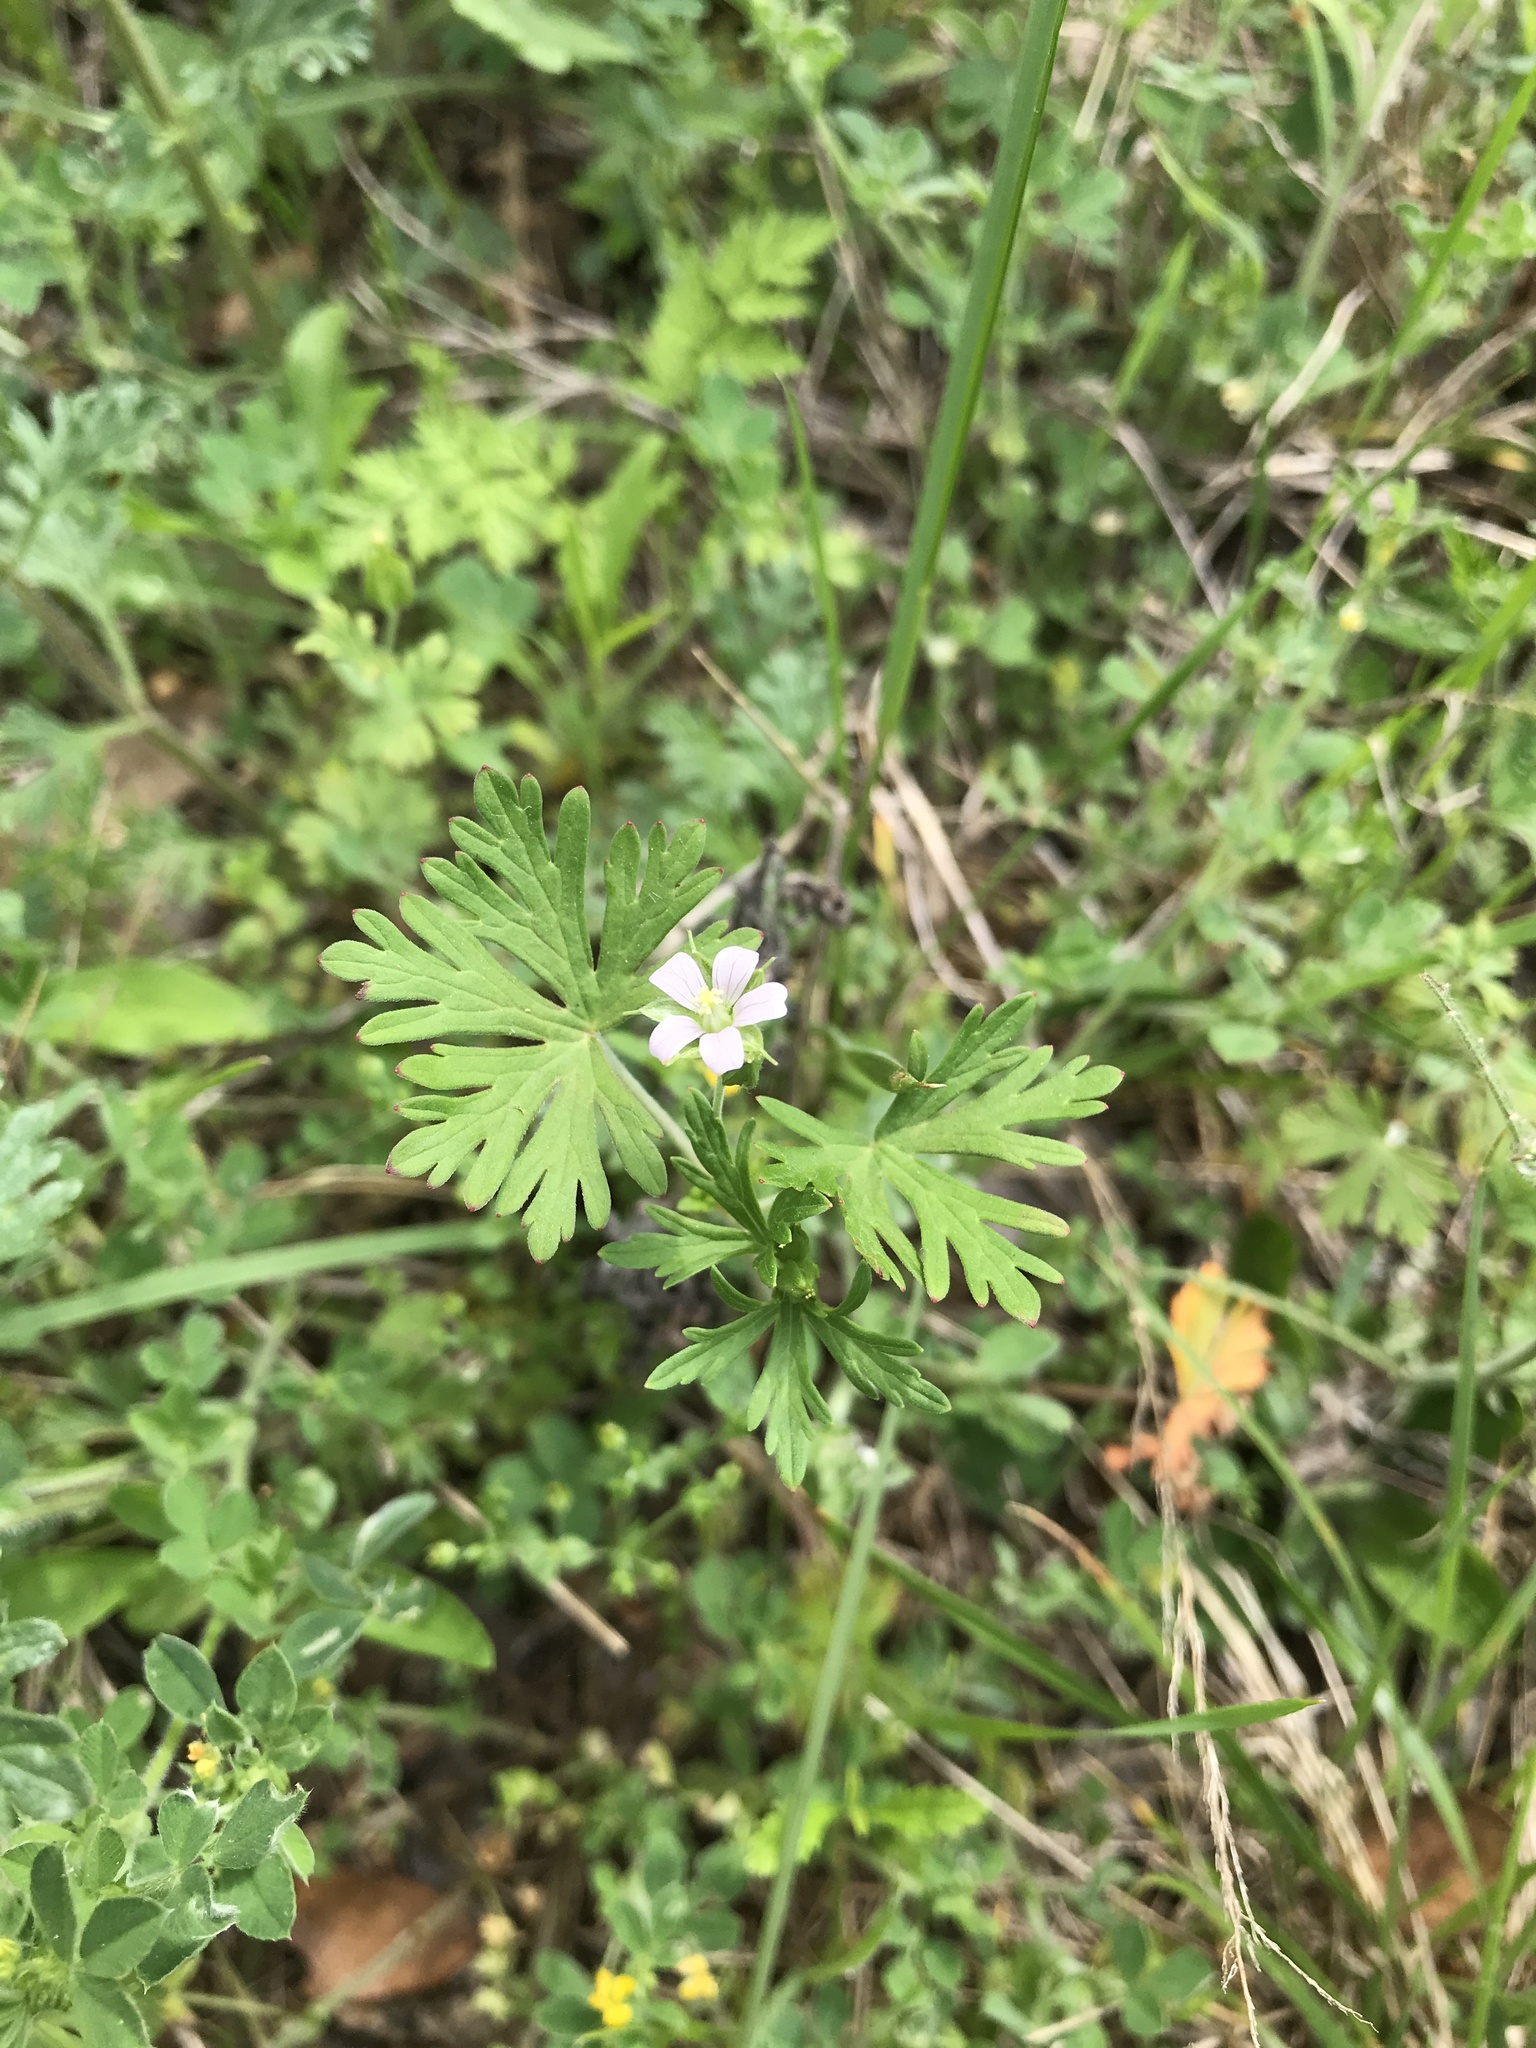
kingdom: Plantae
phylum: Tracheophyta
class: Magnoliopsida
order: Geraniales
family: Geraniaceae
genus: Geranium
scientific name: Geranium carolinianum
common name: Carolina crane's-bill
